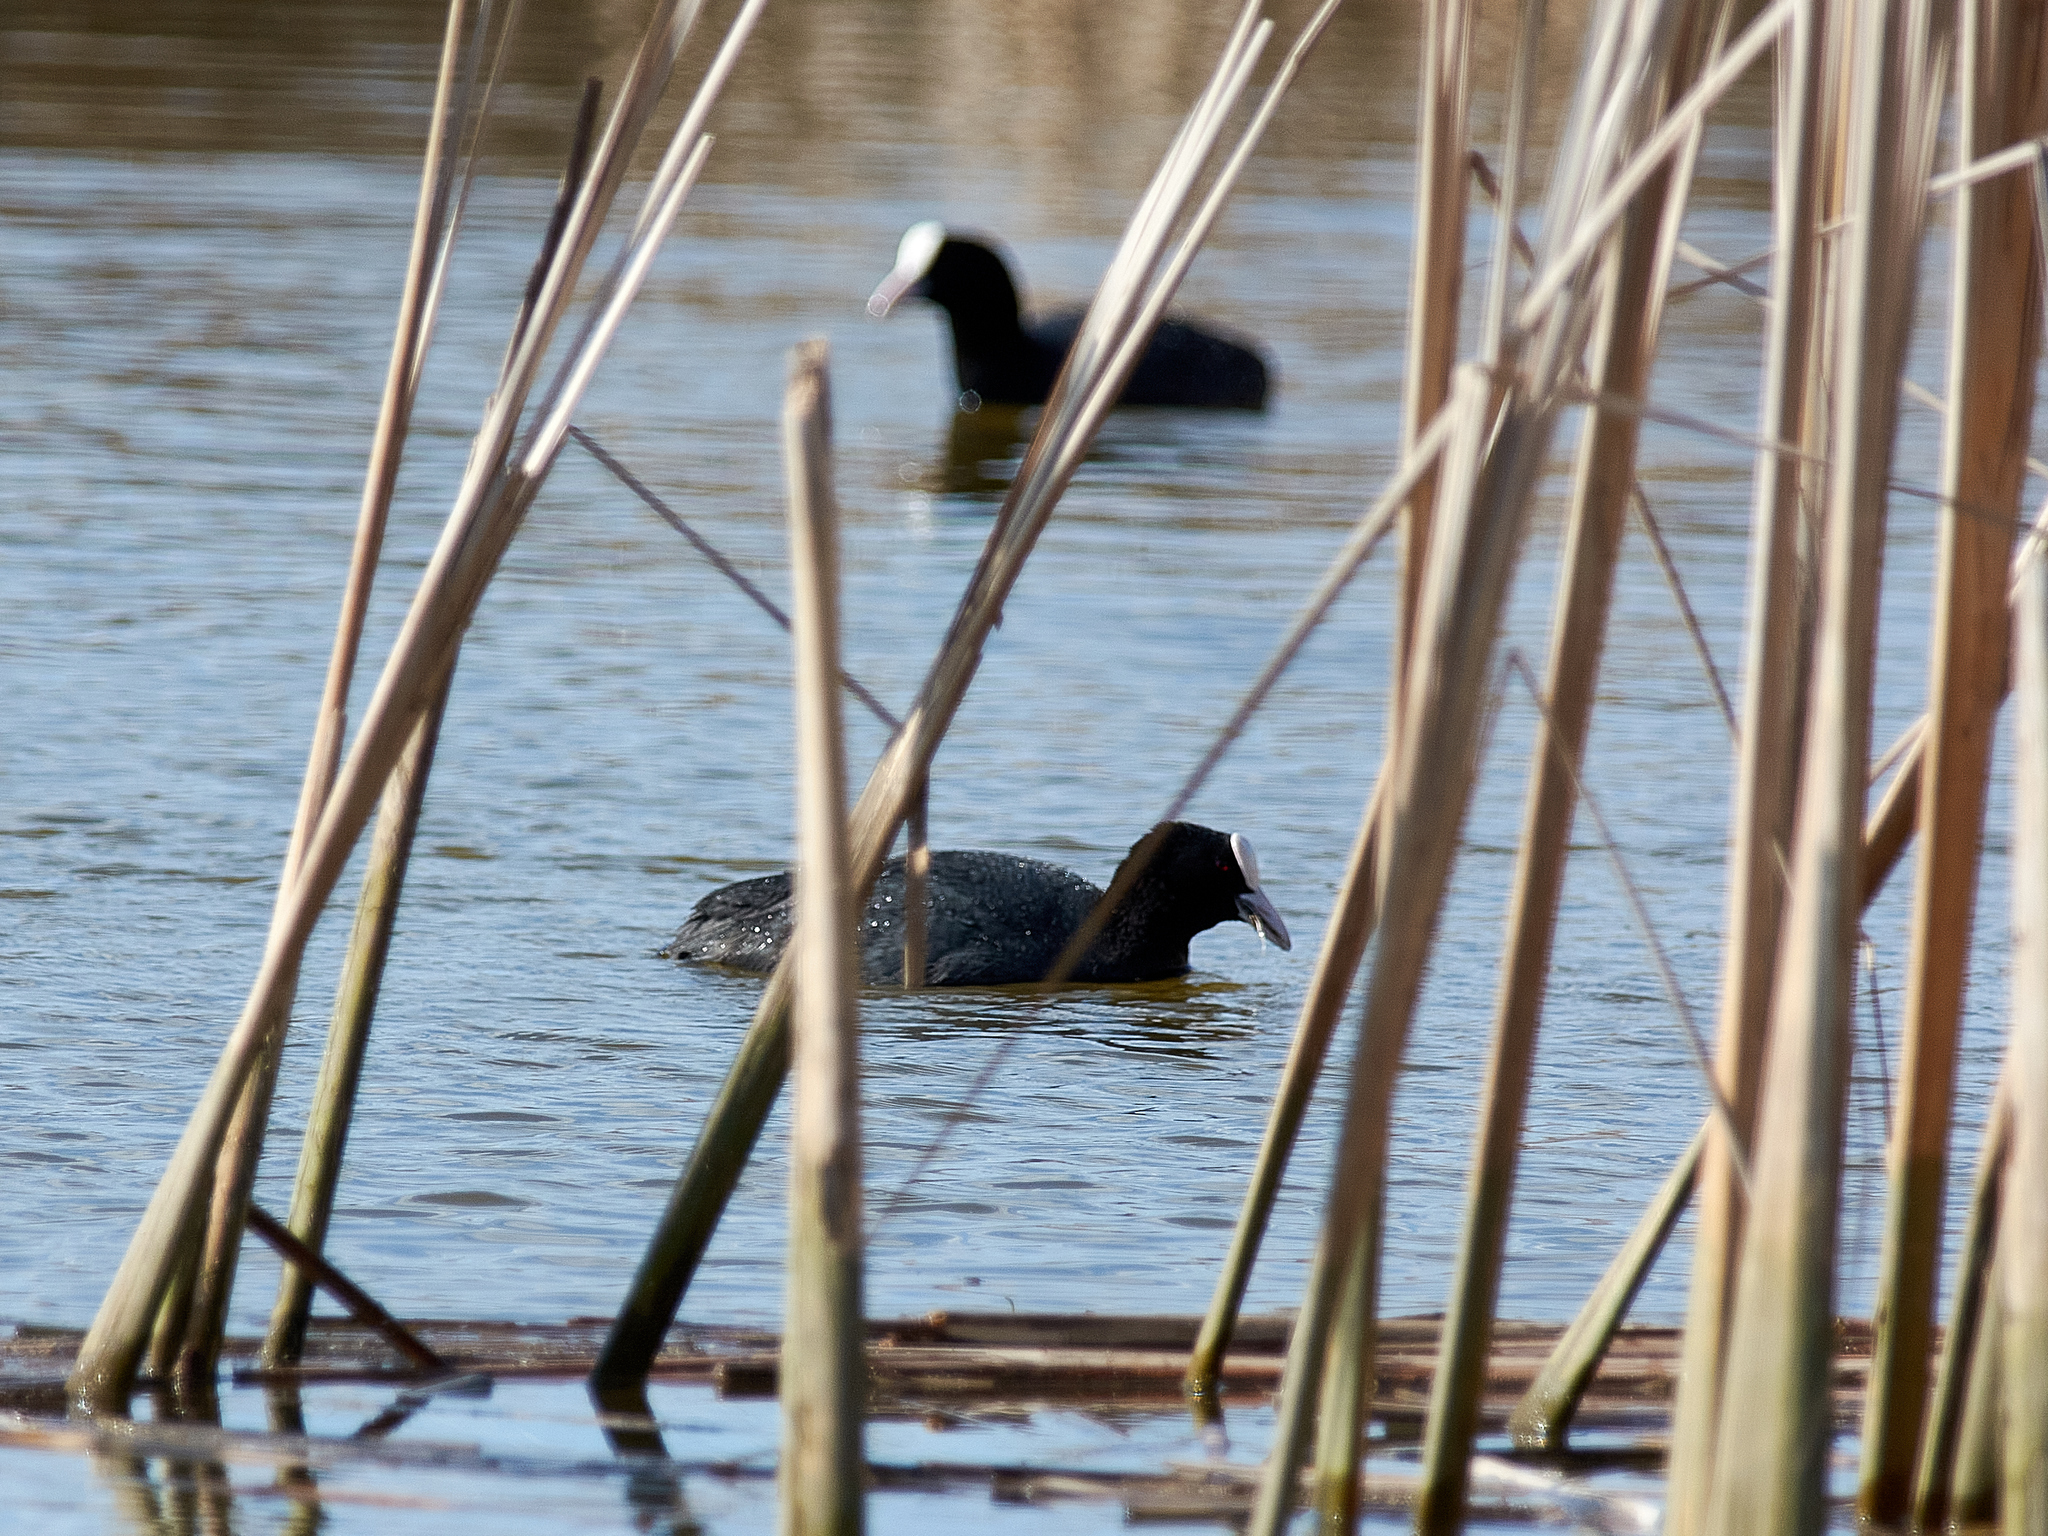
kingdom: Animalia
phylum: Chordata
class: Aves
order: Gruiformes
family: Rallidae
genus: Fulica
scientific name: Fulica atra
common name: Eurasian coot
